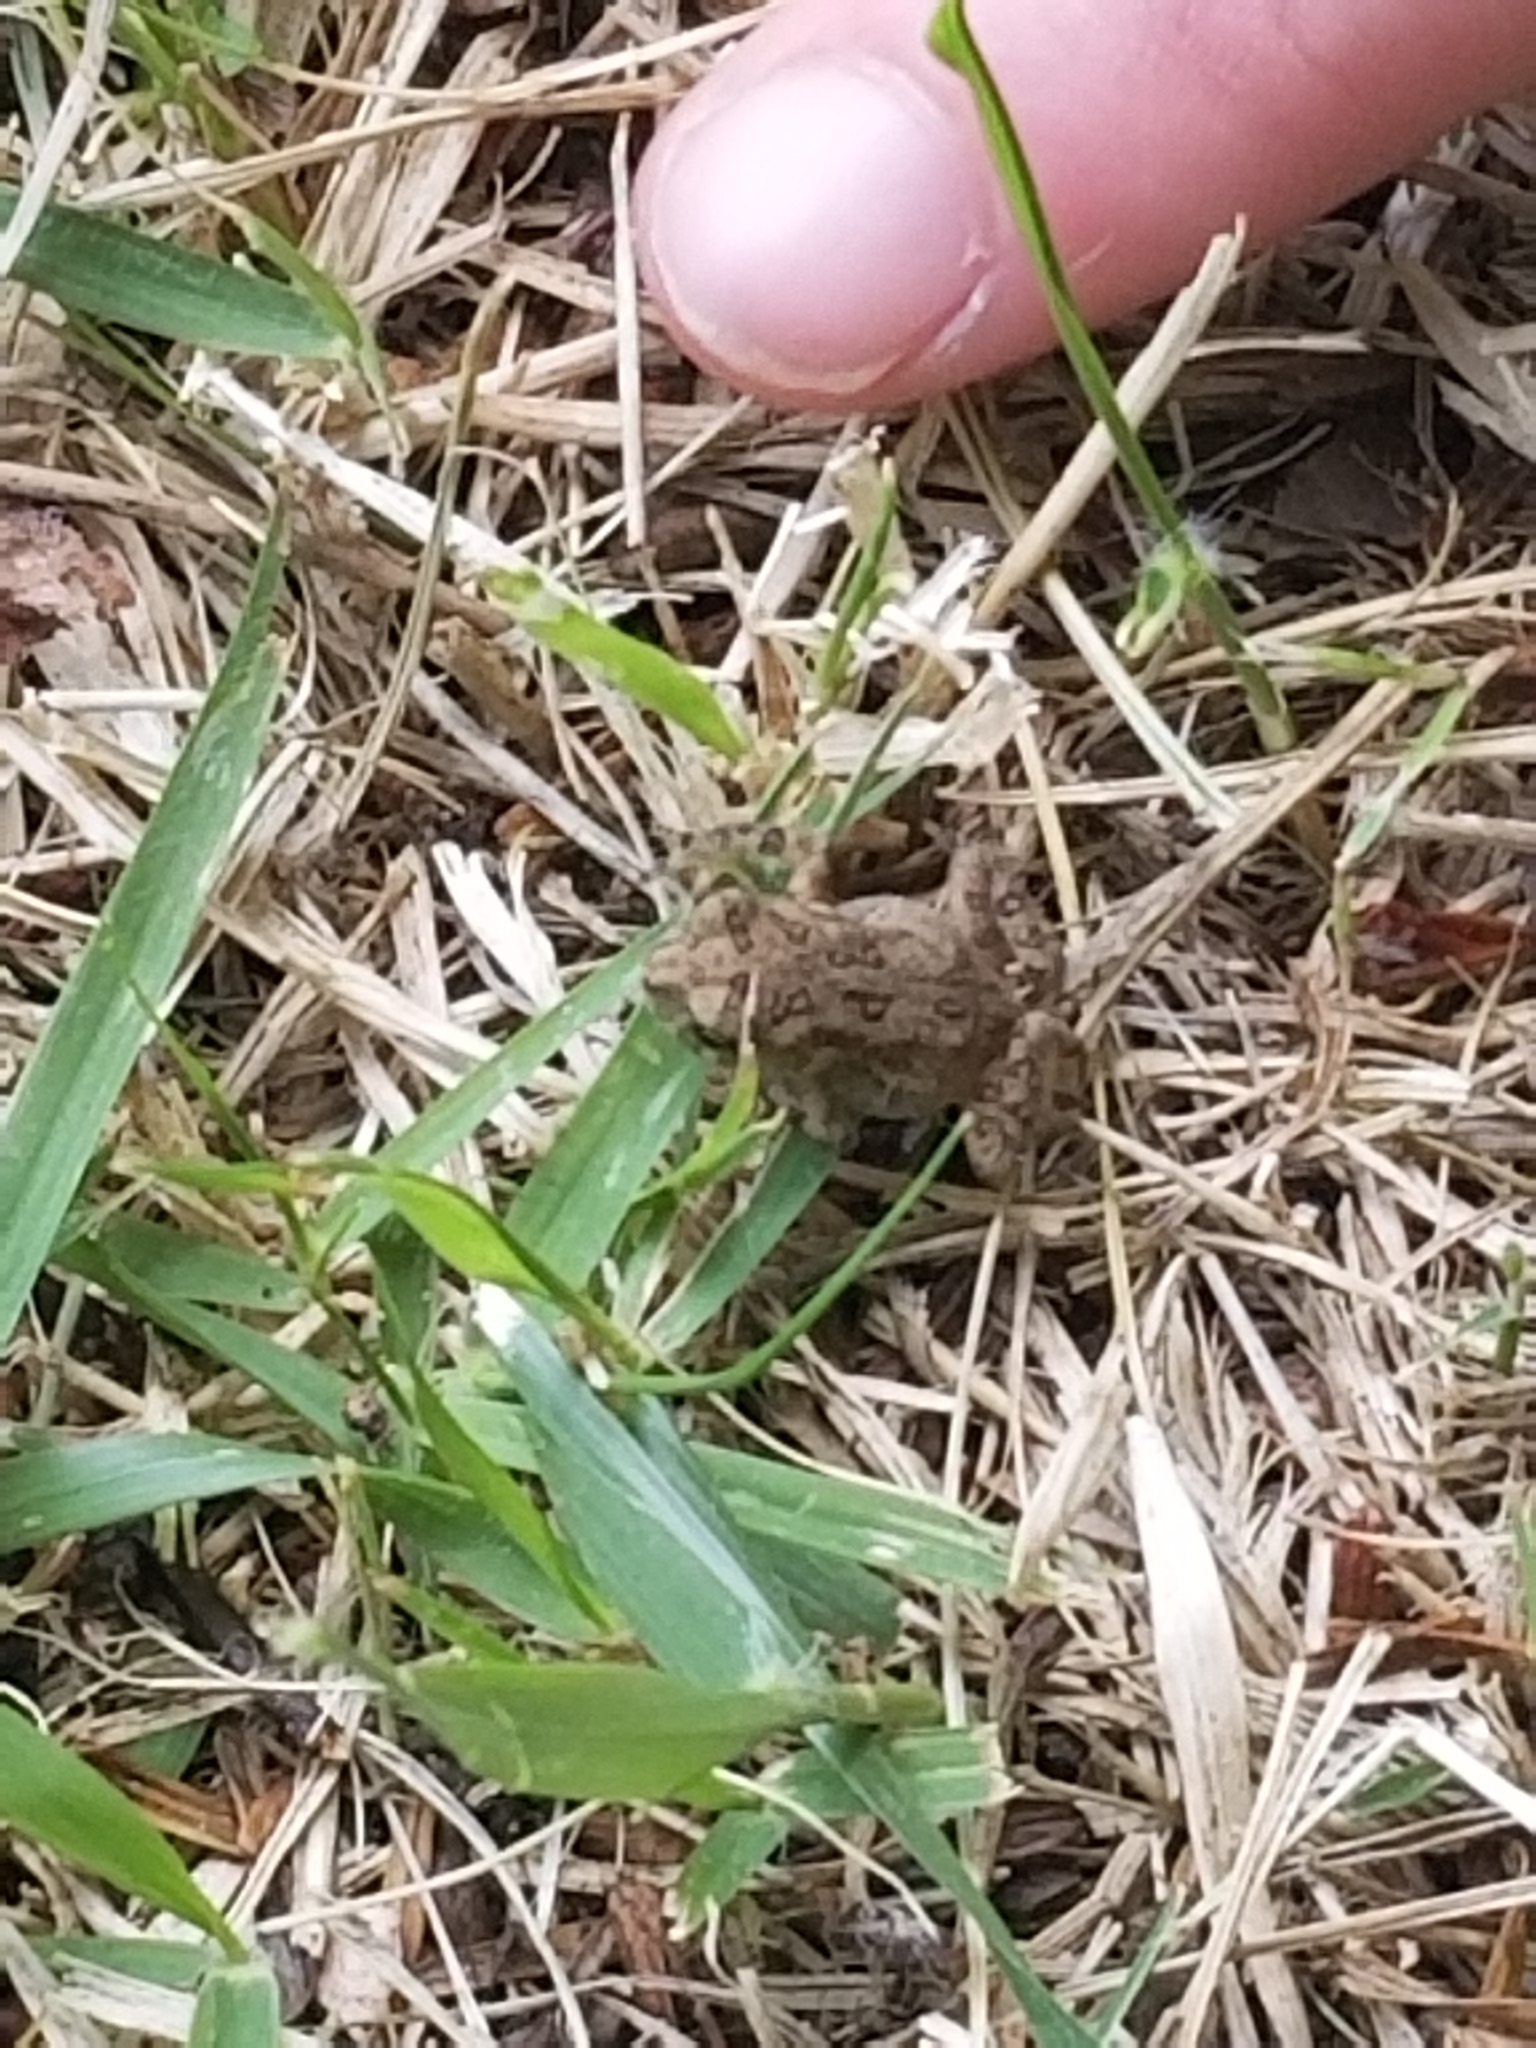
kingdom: Animalia
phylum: Chordata
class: Amphibia
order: Anura
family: Bufonidae
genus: Anaxyrus
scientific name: Anaxyrus
